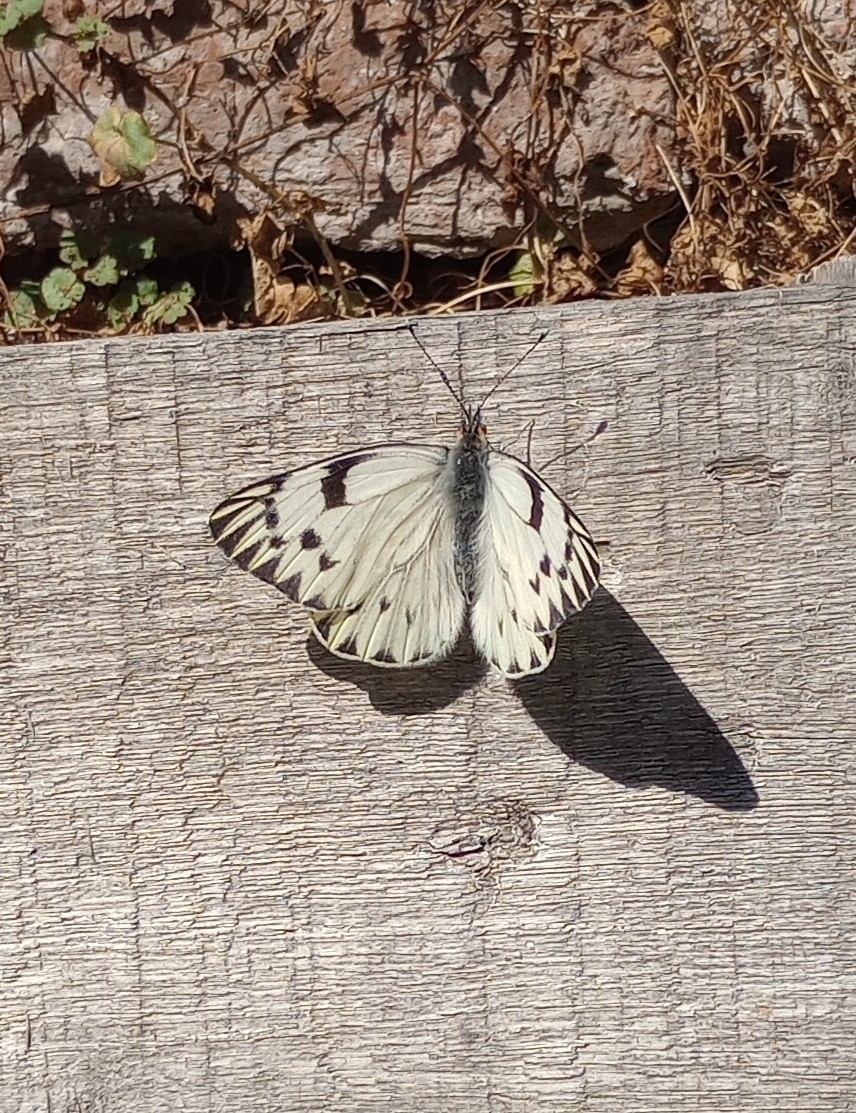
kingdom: Animalia
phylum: Arthropoda
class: Insecta
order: Lepidoptera
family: Pieridae
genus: Tatochila
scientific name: Tatochila autodice
